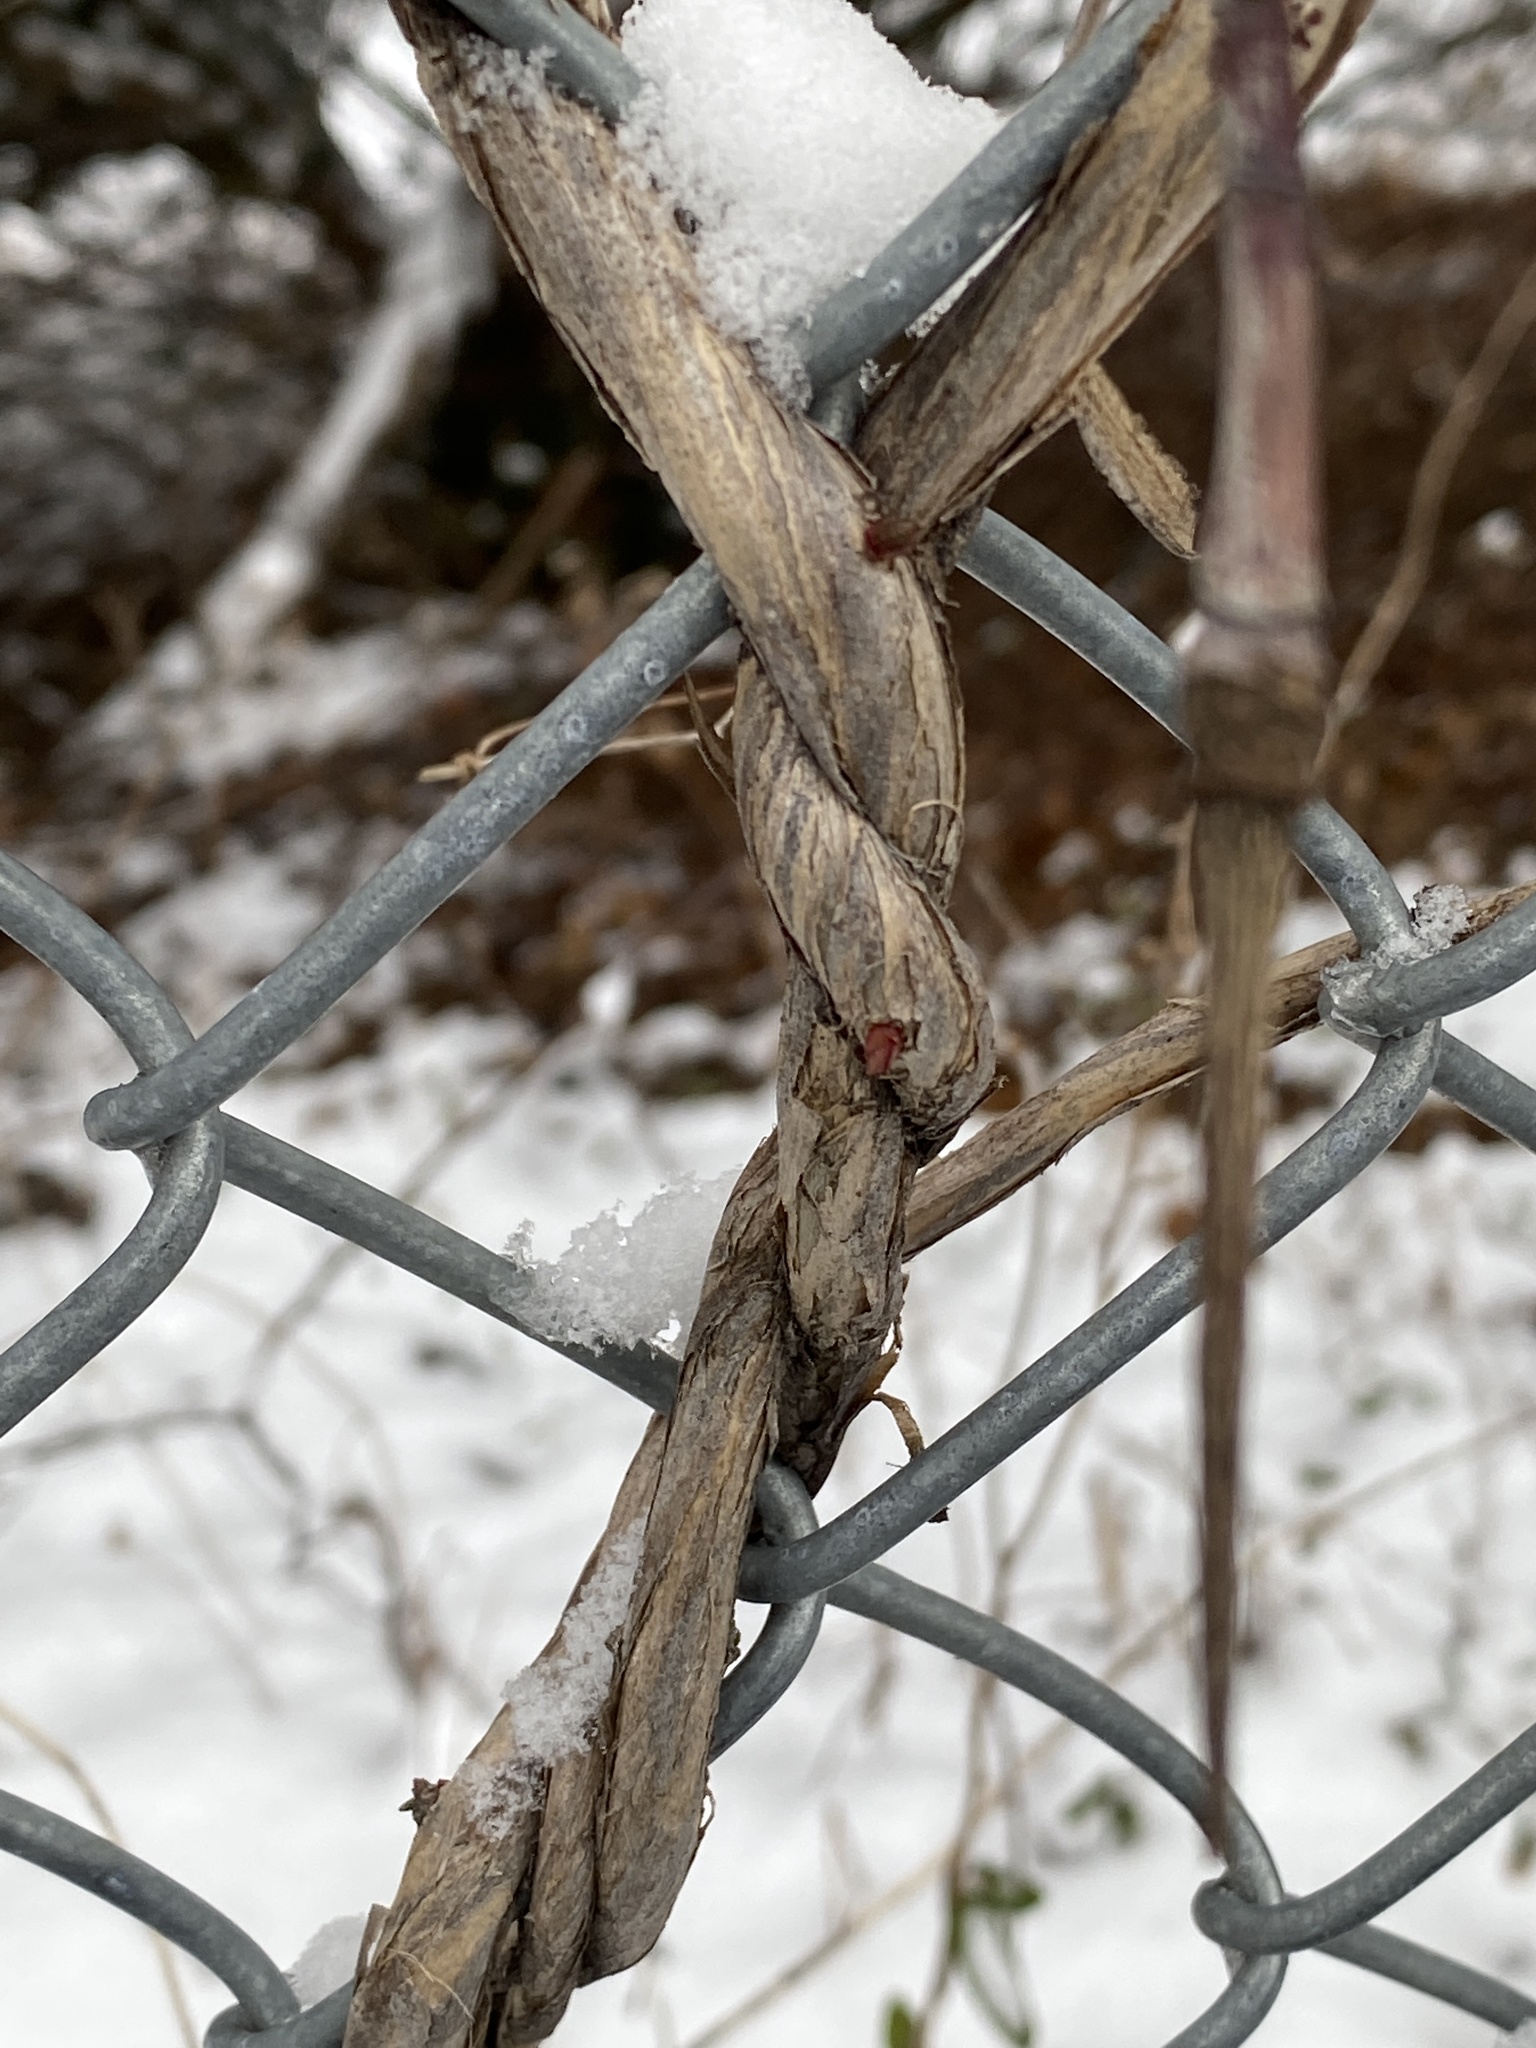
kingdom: Plantae
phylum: Tracheophyta
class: Magnoliopsida
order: Dipsacales
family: Caprifoliaceae
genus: Lonicera
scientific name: Lonicera japonica
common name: Japanese honeysuckle
